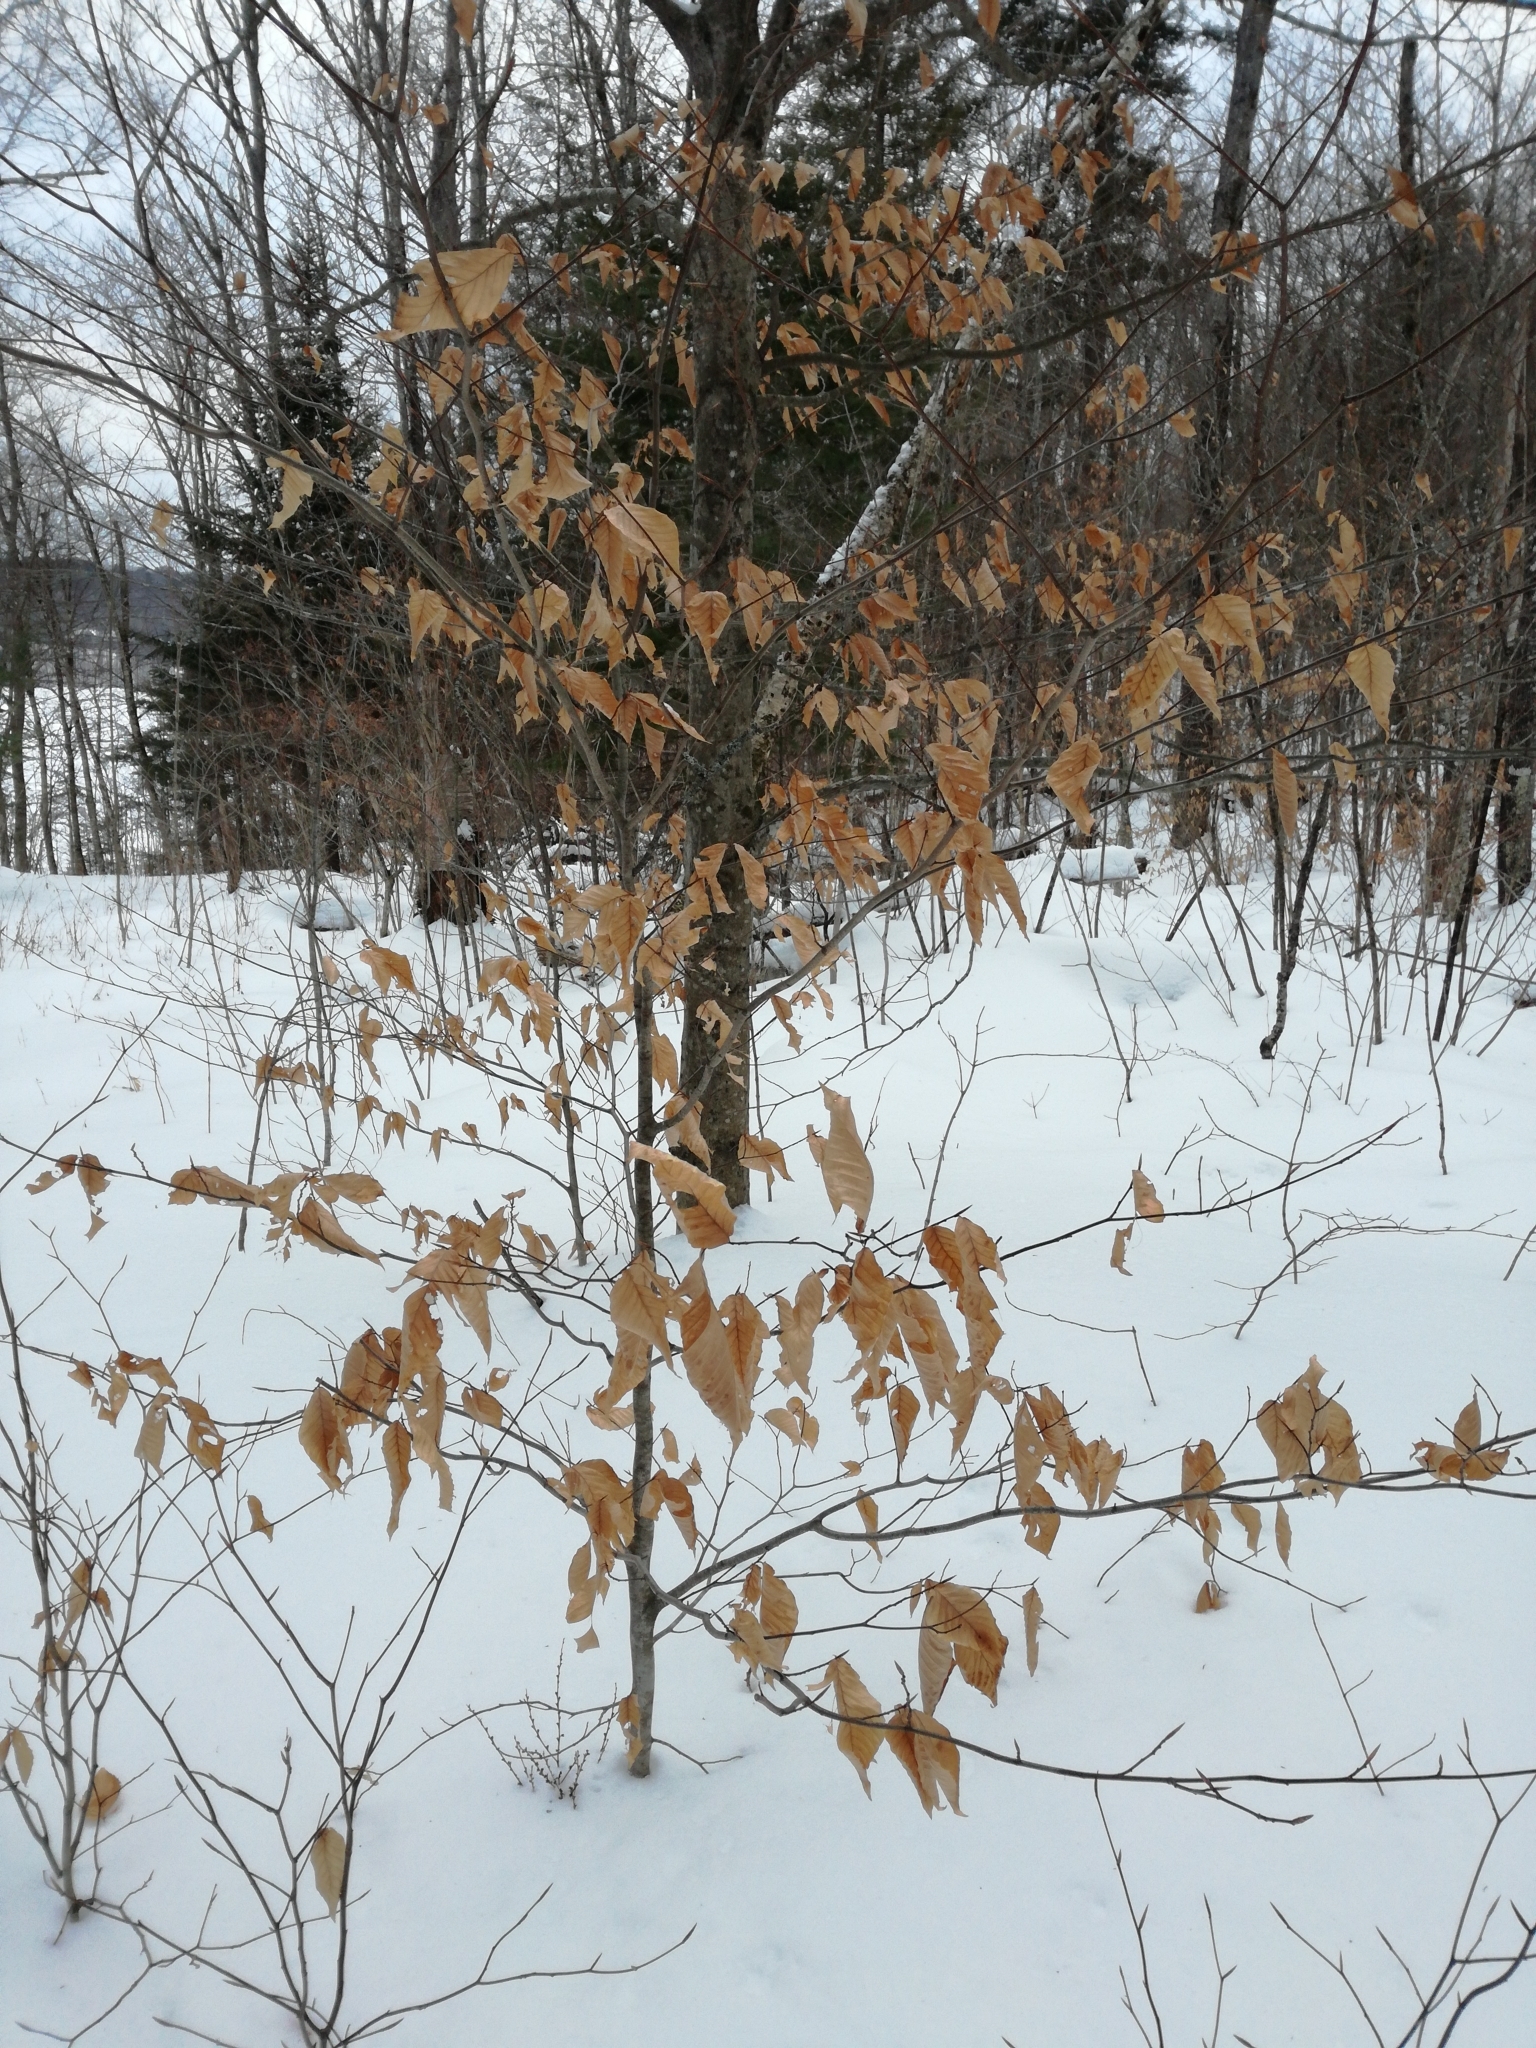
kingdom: Plantae
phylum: Tracheophyta
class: Magnoliopsida
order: Fagales
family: Fagaceae
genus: Fagus
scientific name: Fagus grandifolia
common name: American beech
